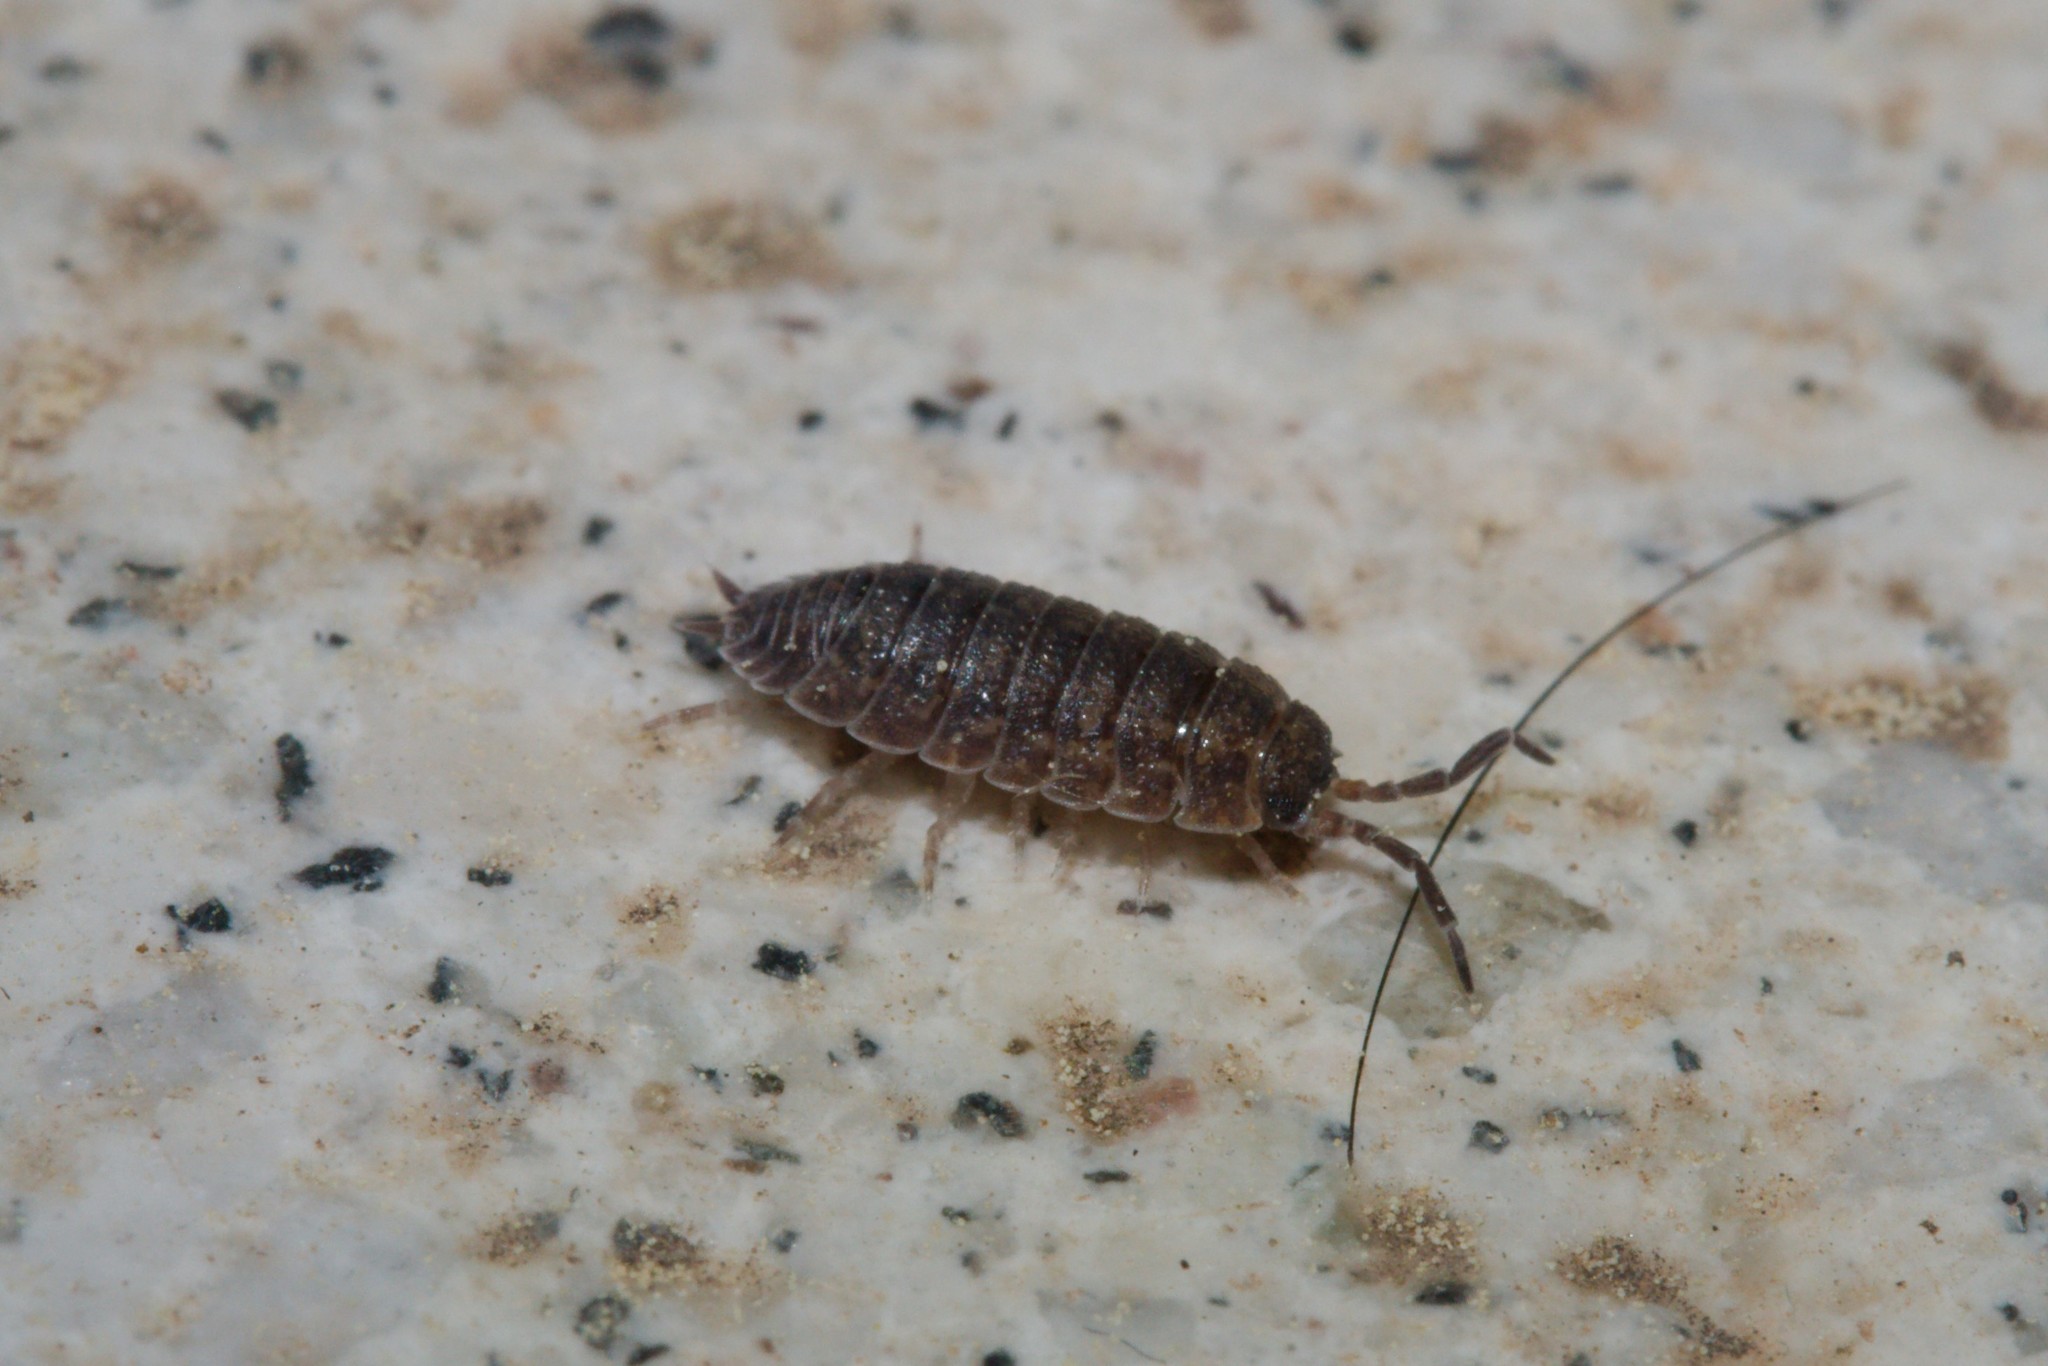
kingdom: Animalia
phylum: Arthropoda
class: Malacostraca
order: Isopoda
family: Porcellionidae
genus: Porcellio
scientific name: Porcellio scaber
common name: Common rough woodlouse
